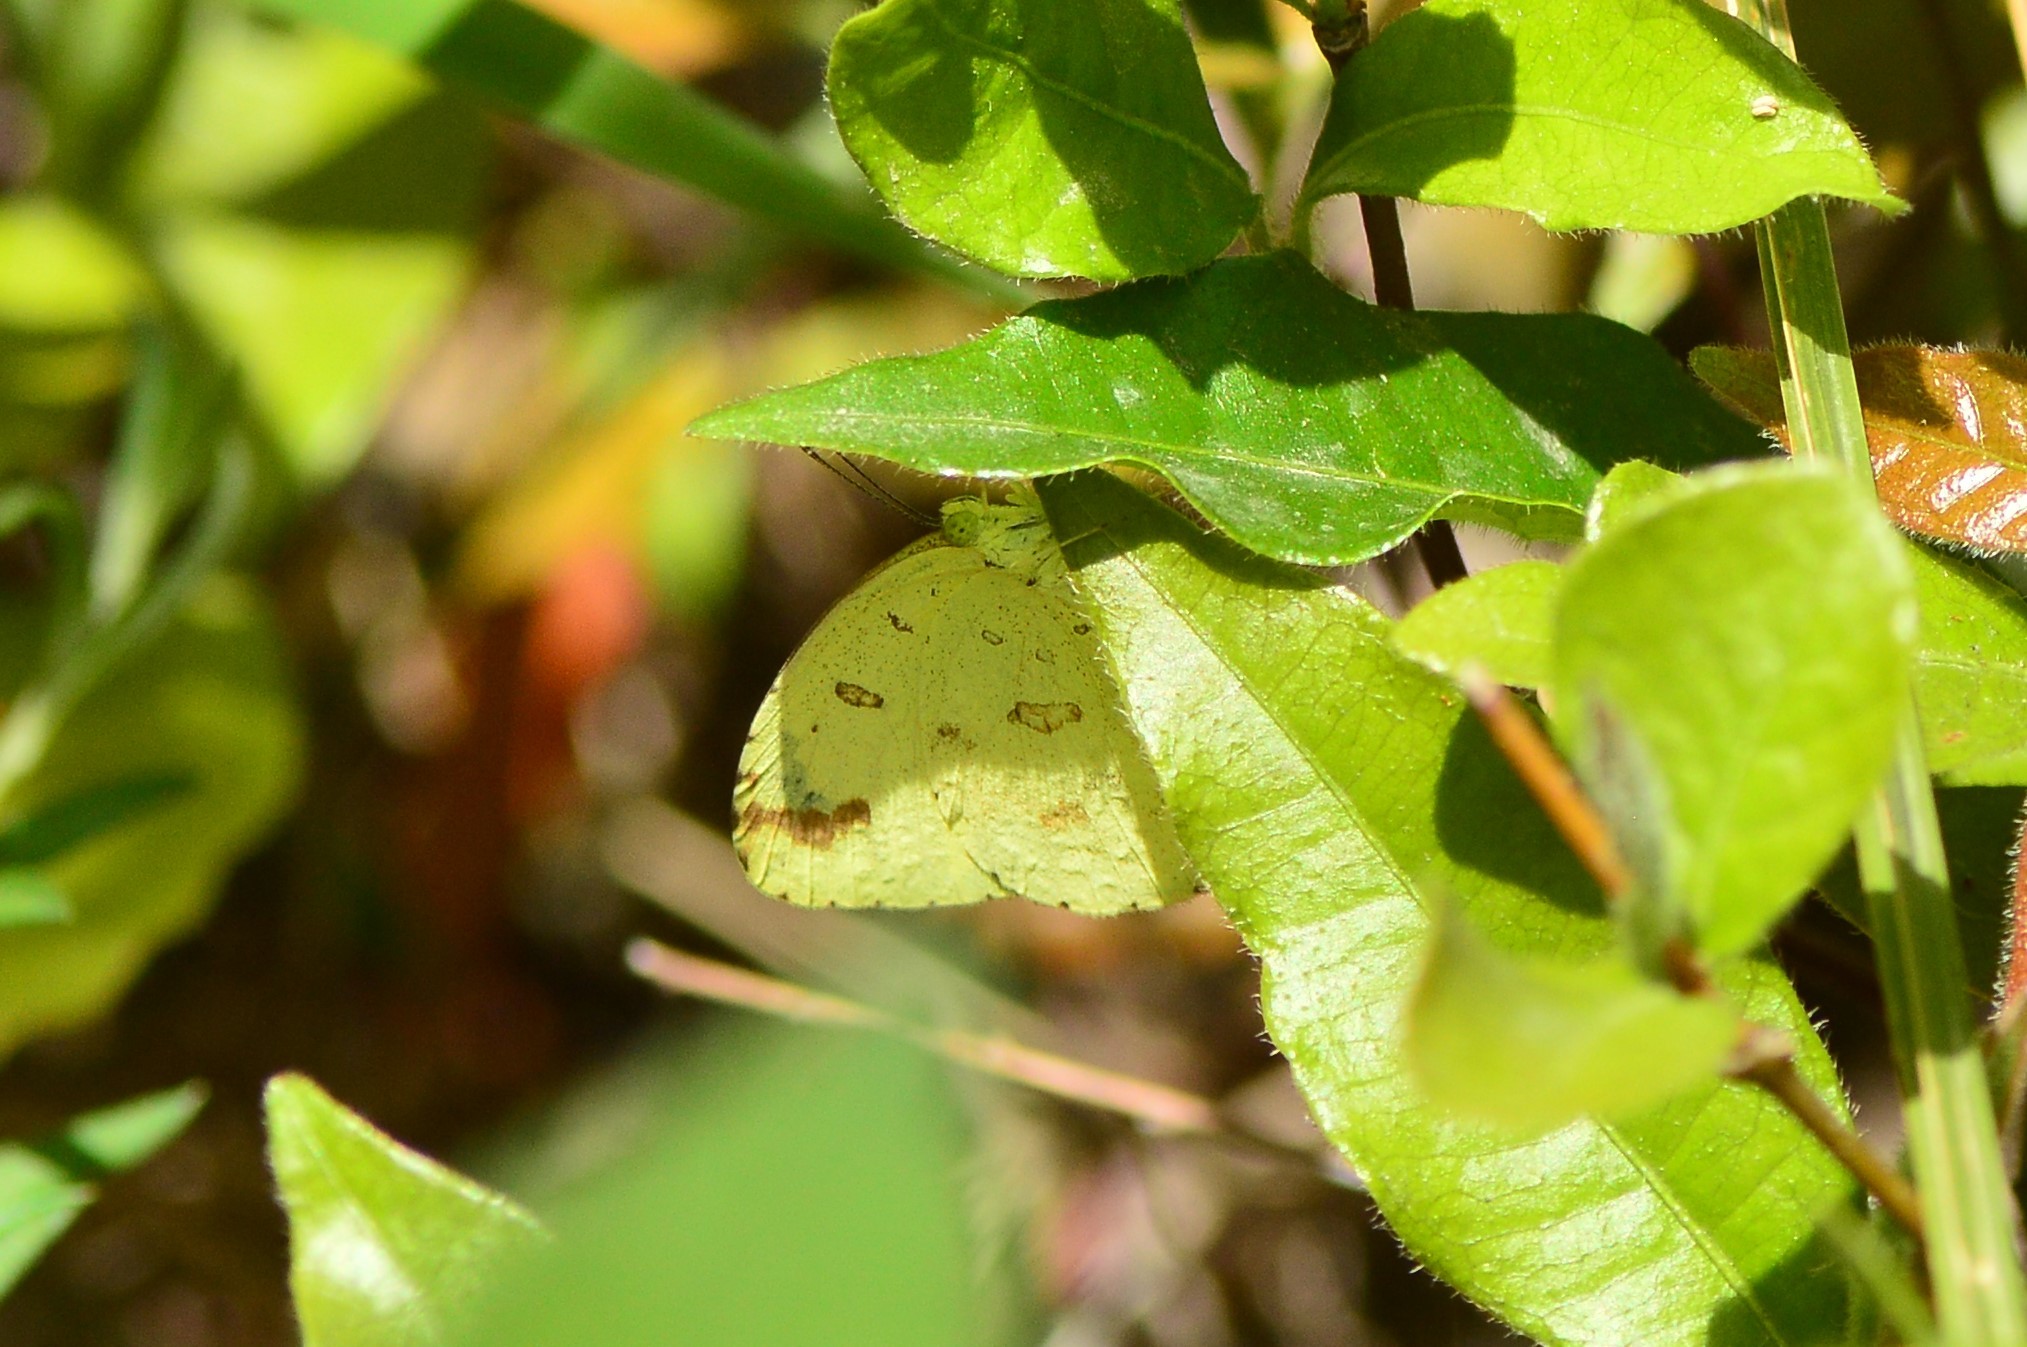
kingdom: Animalia
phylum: Arthropoda
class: Insecta
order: Lepidoptera
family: Pieridae
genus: Eurema
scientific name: Eurema hecabe
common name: Pale grass yellow
